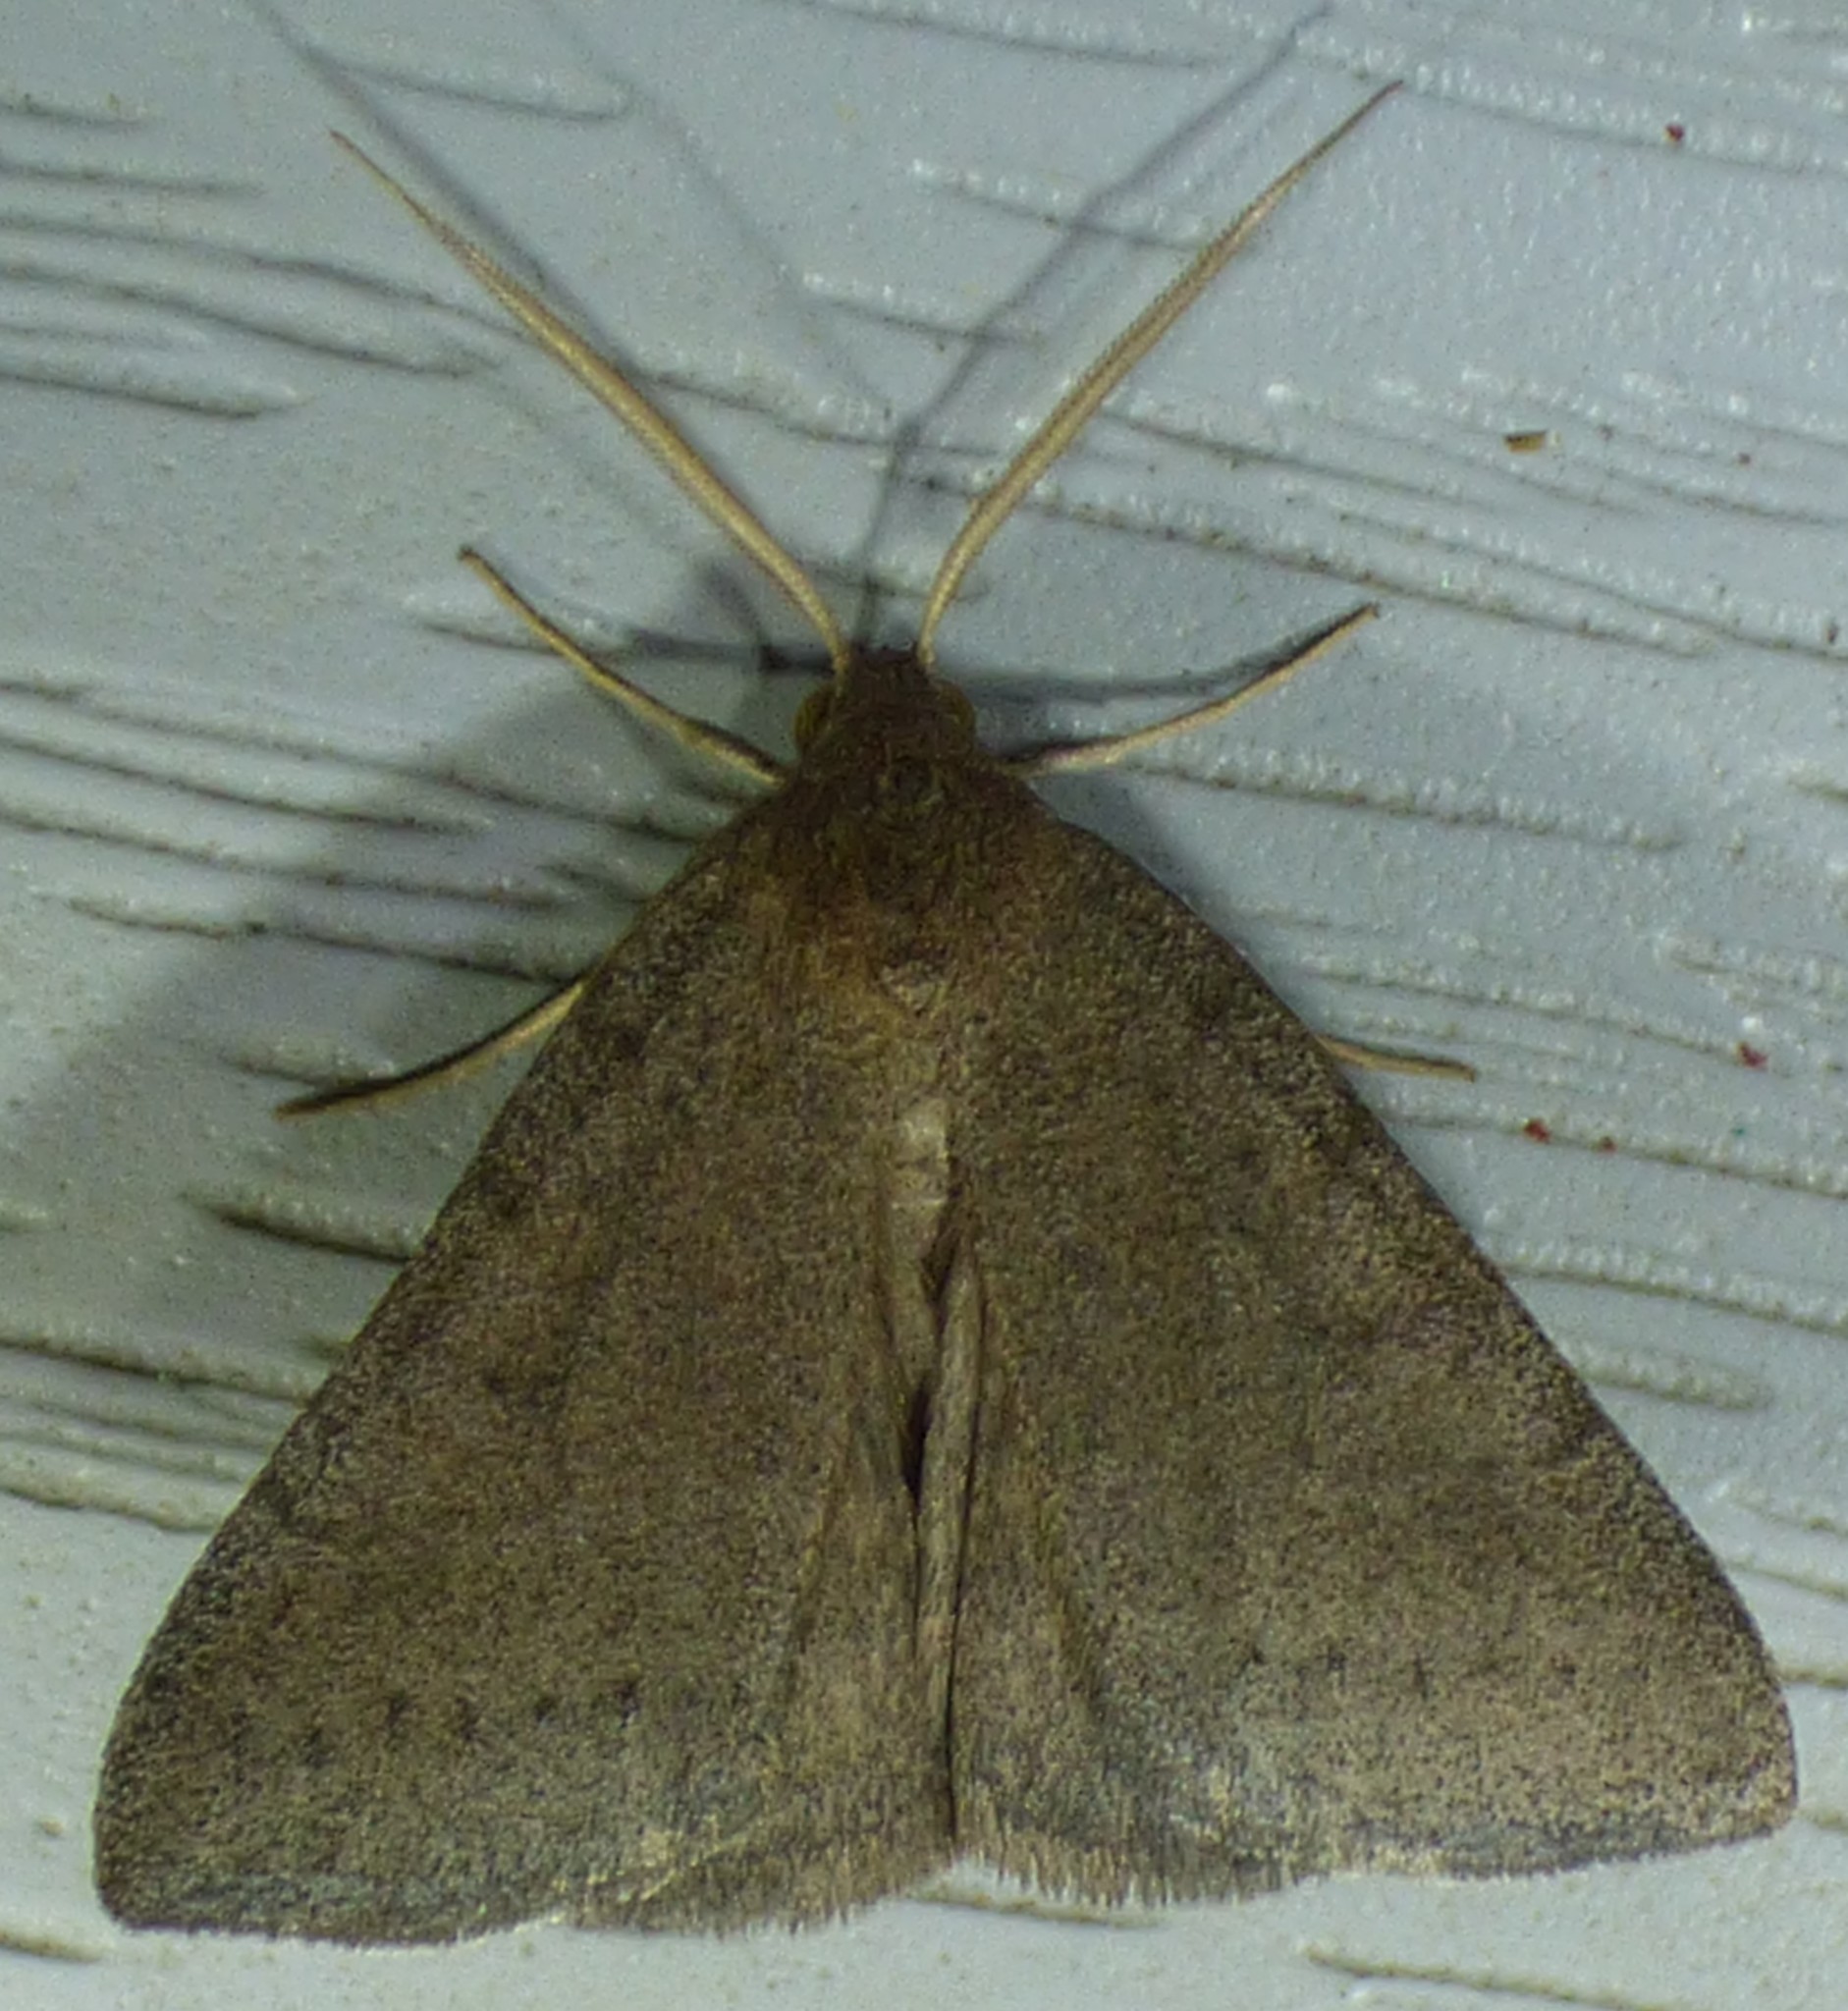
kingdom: Animalia
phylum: Arthropoda
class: Insecta
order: Lepidoptera
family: Erebidae
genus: Caenurgia
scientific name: Caenurgia chloropha
